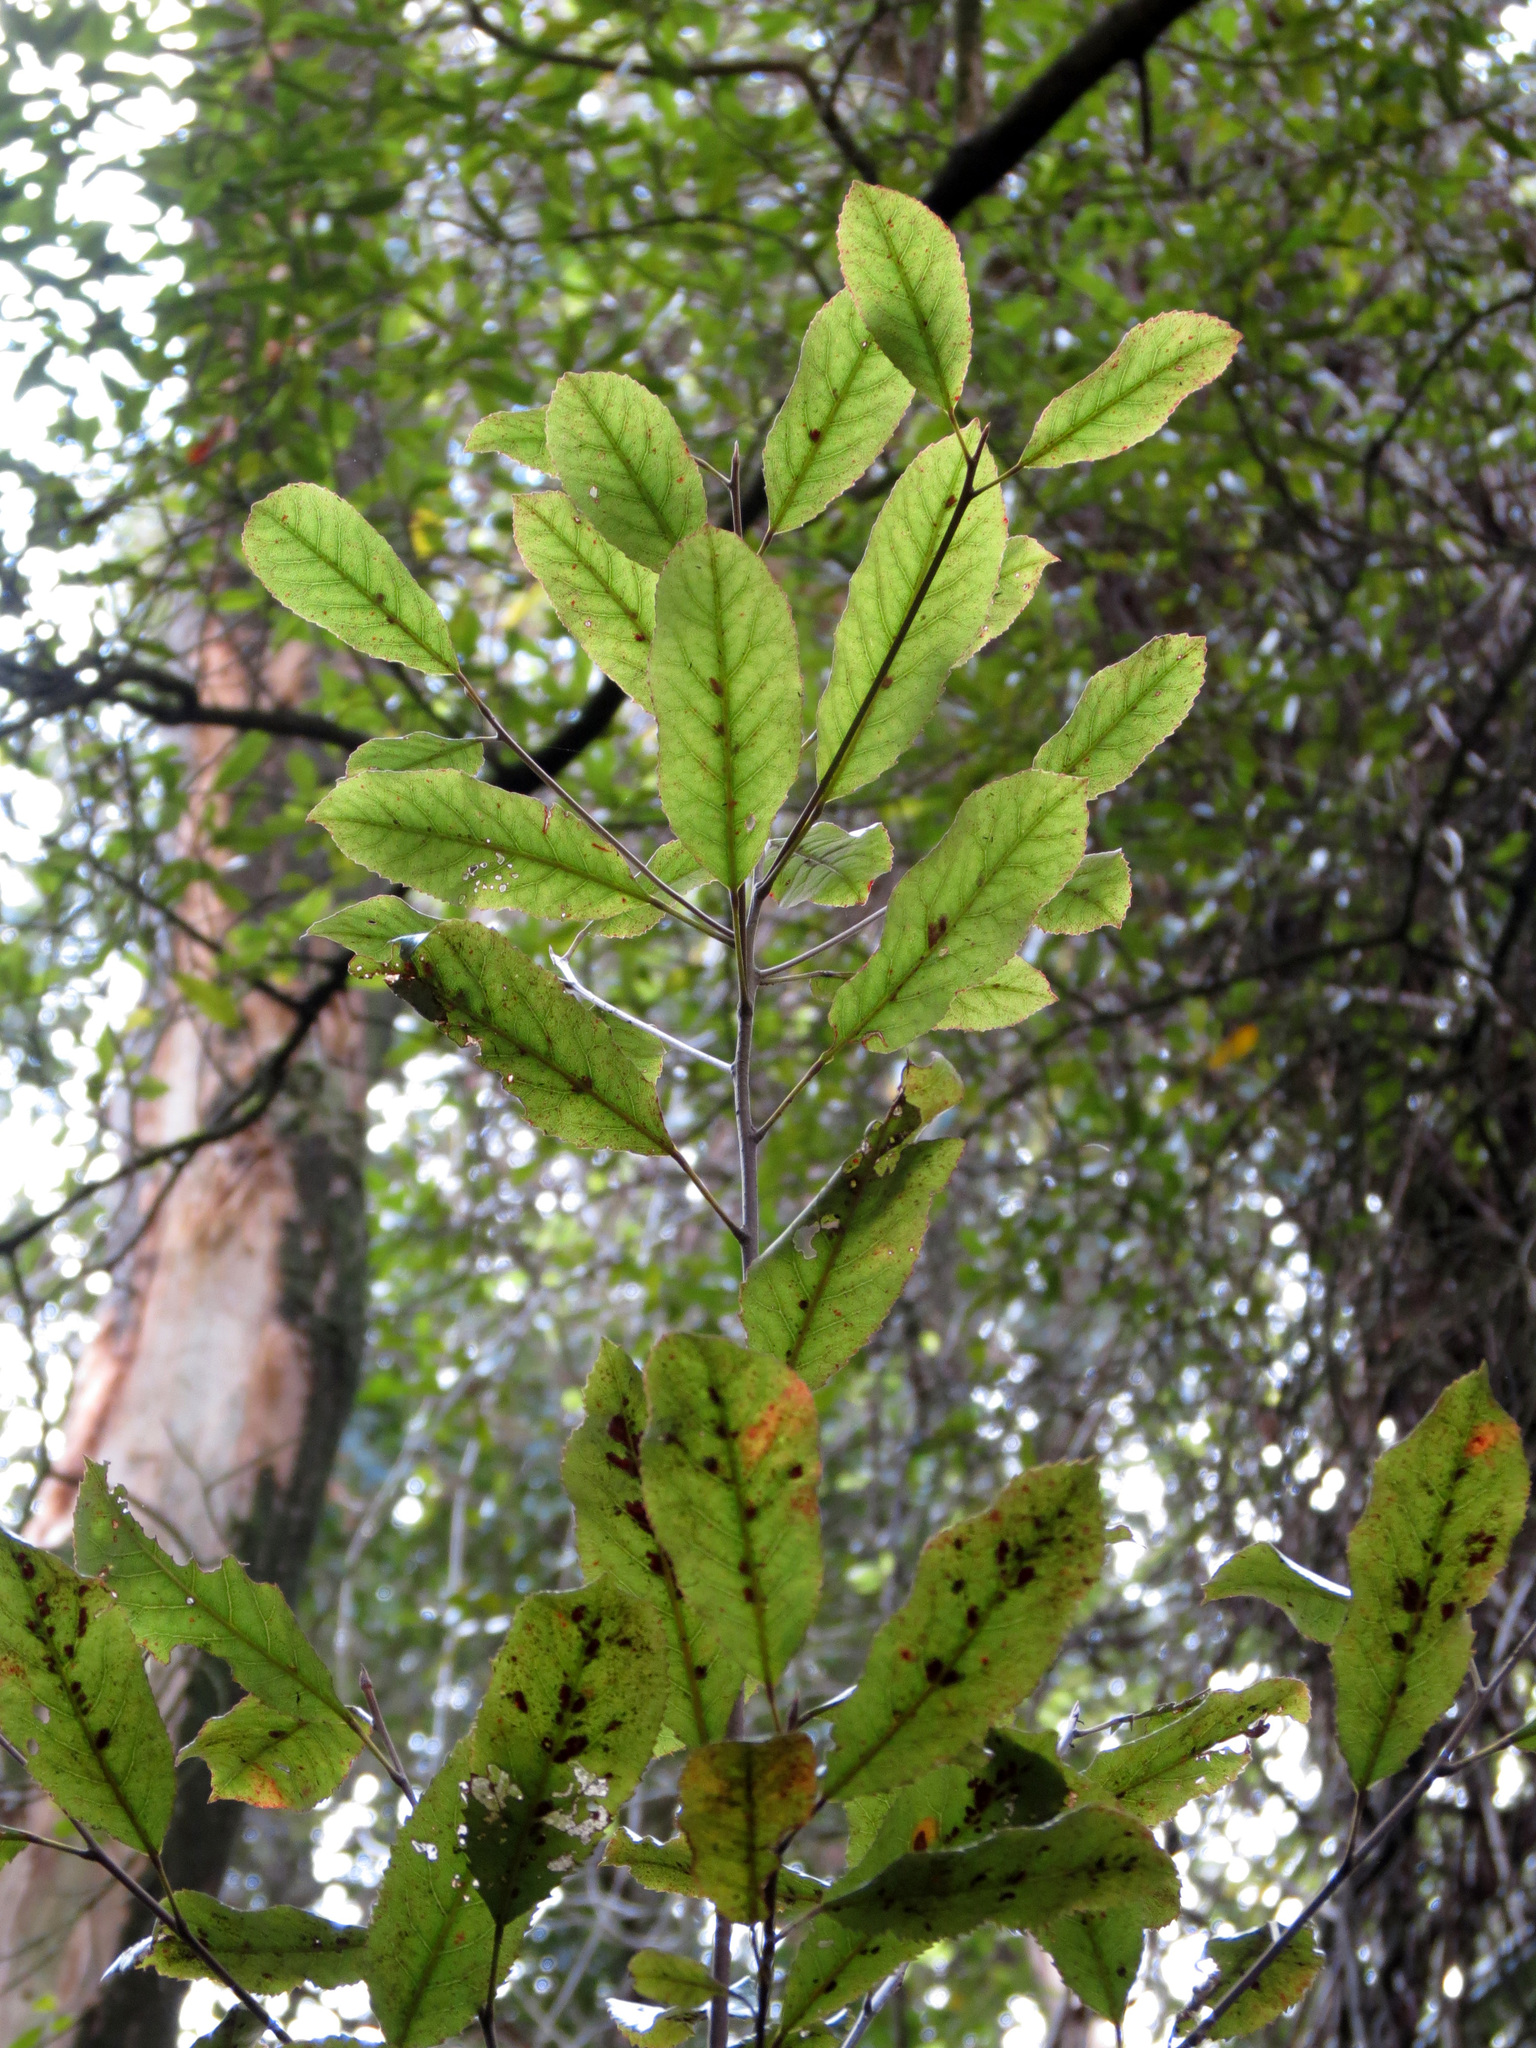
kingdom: Plantae
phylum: Tracheophyta
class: Magnoliopsida
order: Oxalidales
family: Elaeocarpaceae
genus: Elaeocarpus
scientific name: Elaeocarpus dentatus
